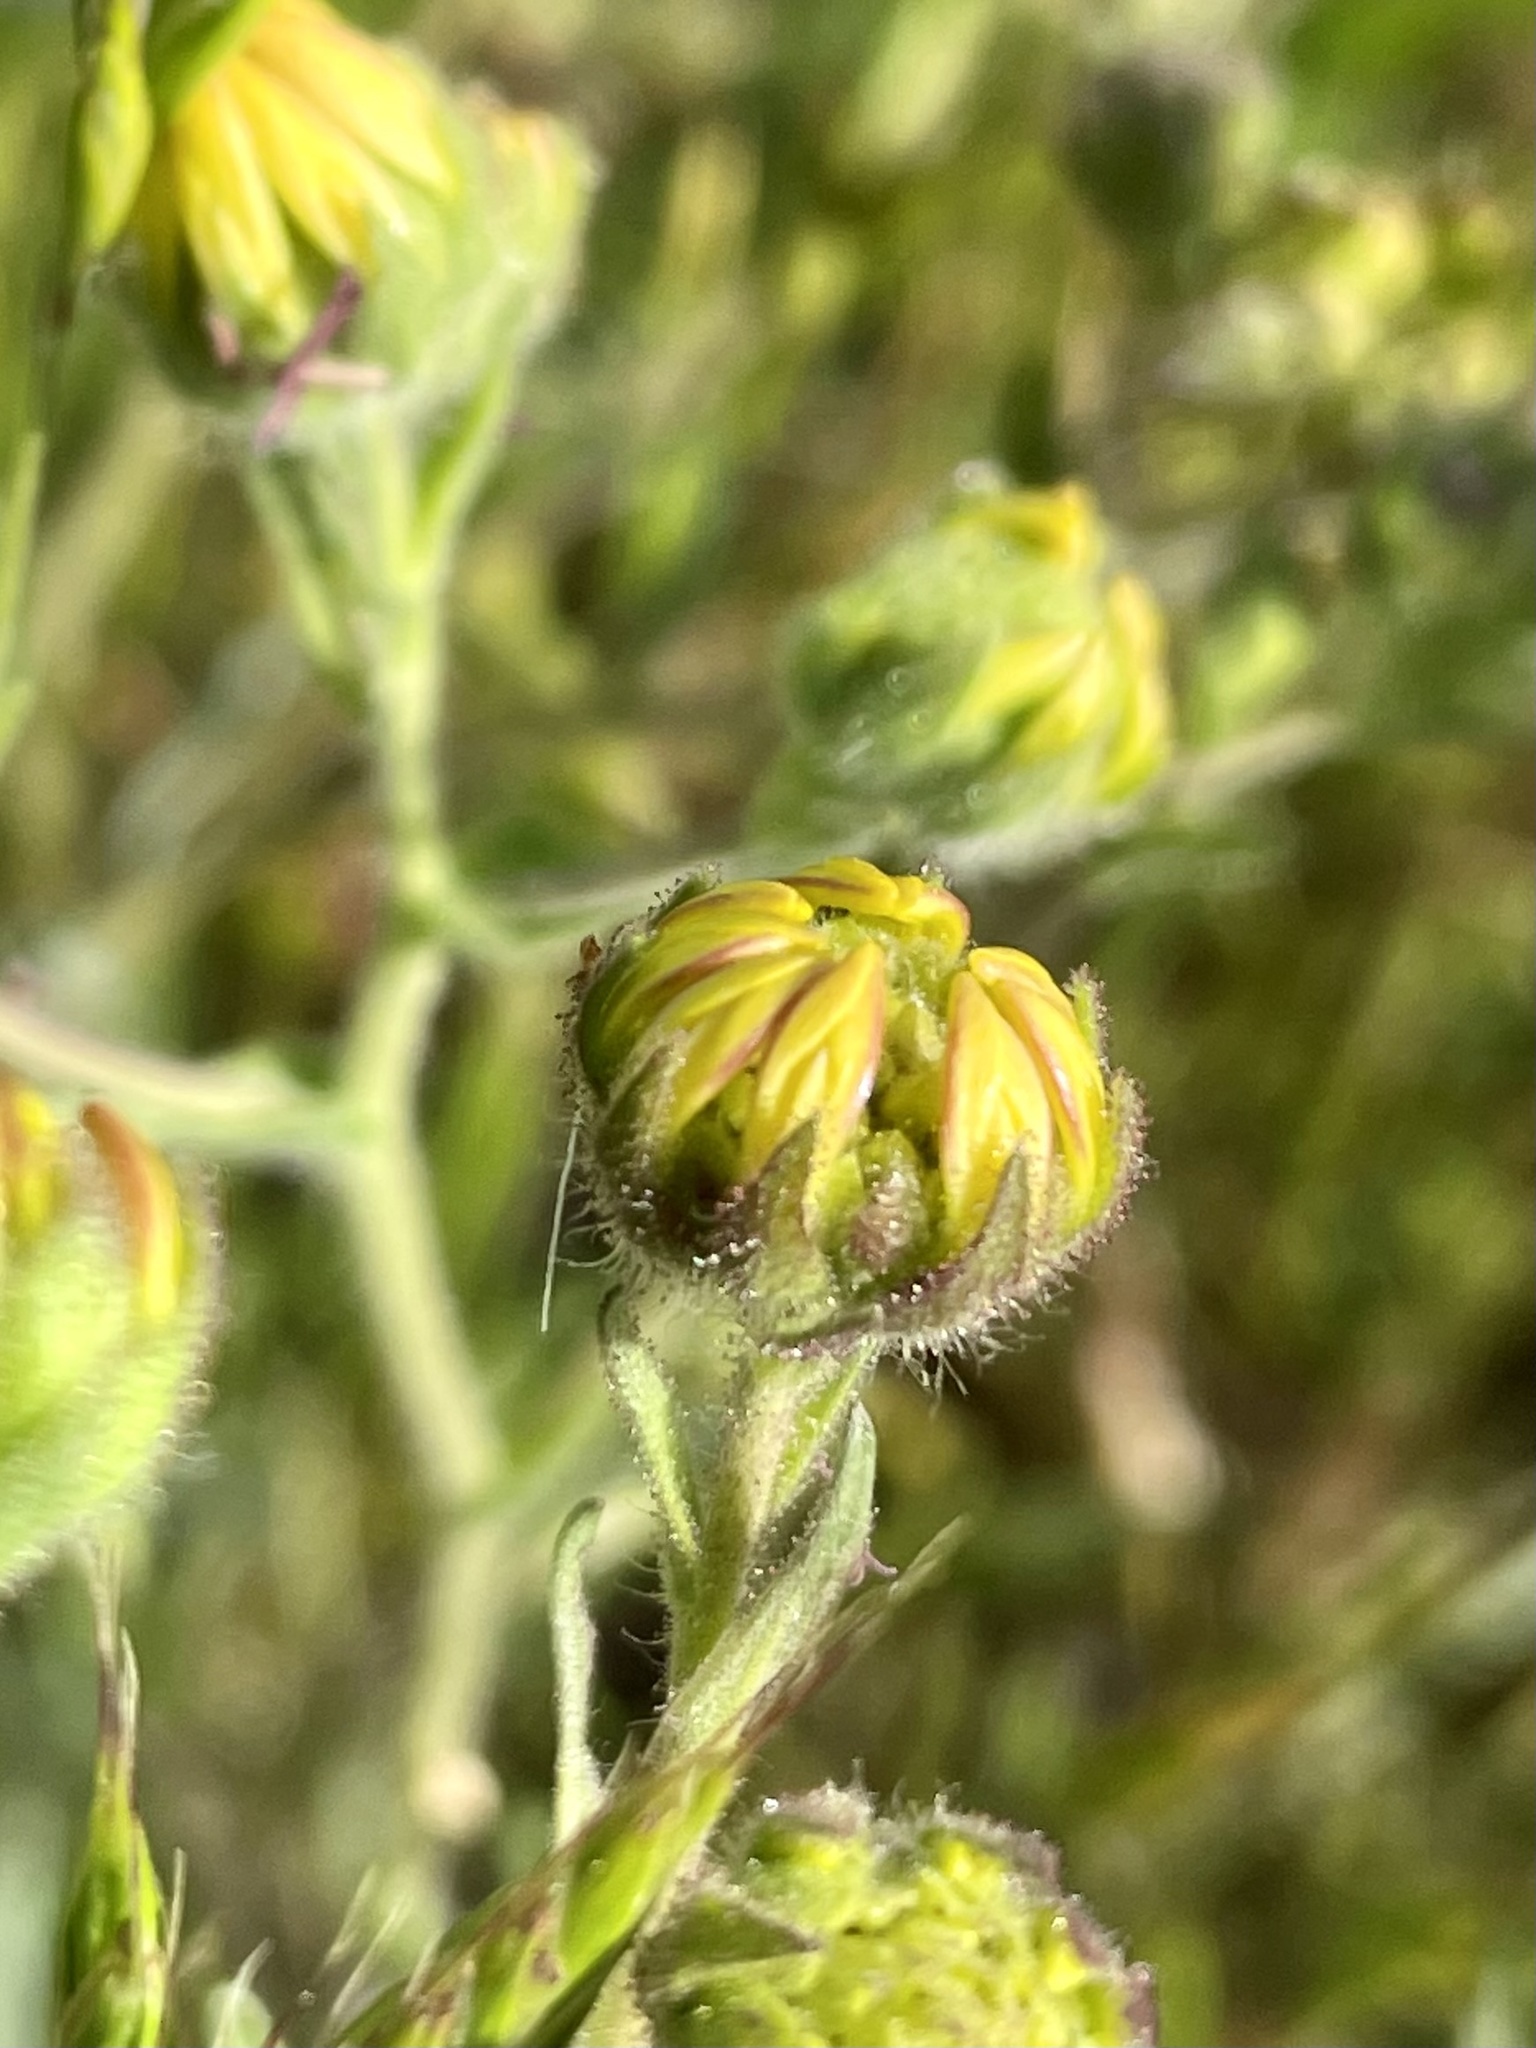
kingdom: Plantae
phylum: Tracheophyta
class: Magnoliopsida
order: Asterales
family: Asteraceae
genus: Hemizonia
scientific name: Hemizonia congesta
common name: Hayfield tarweed
